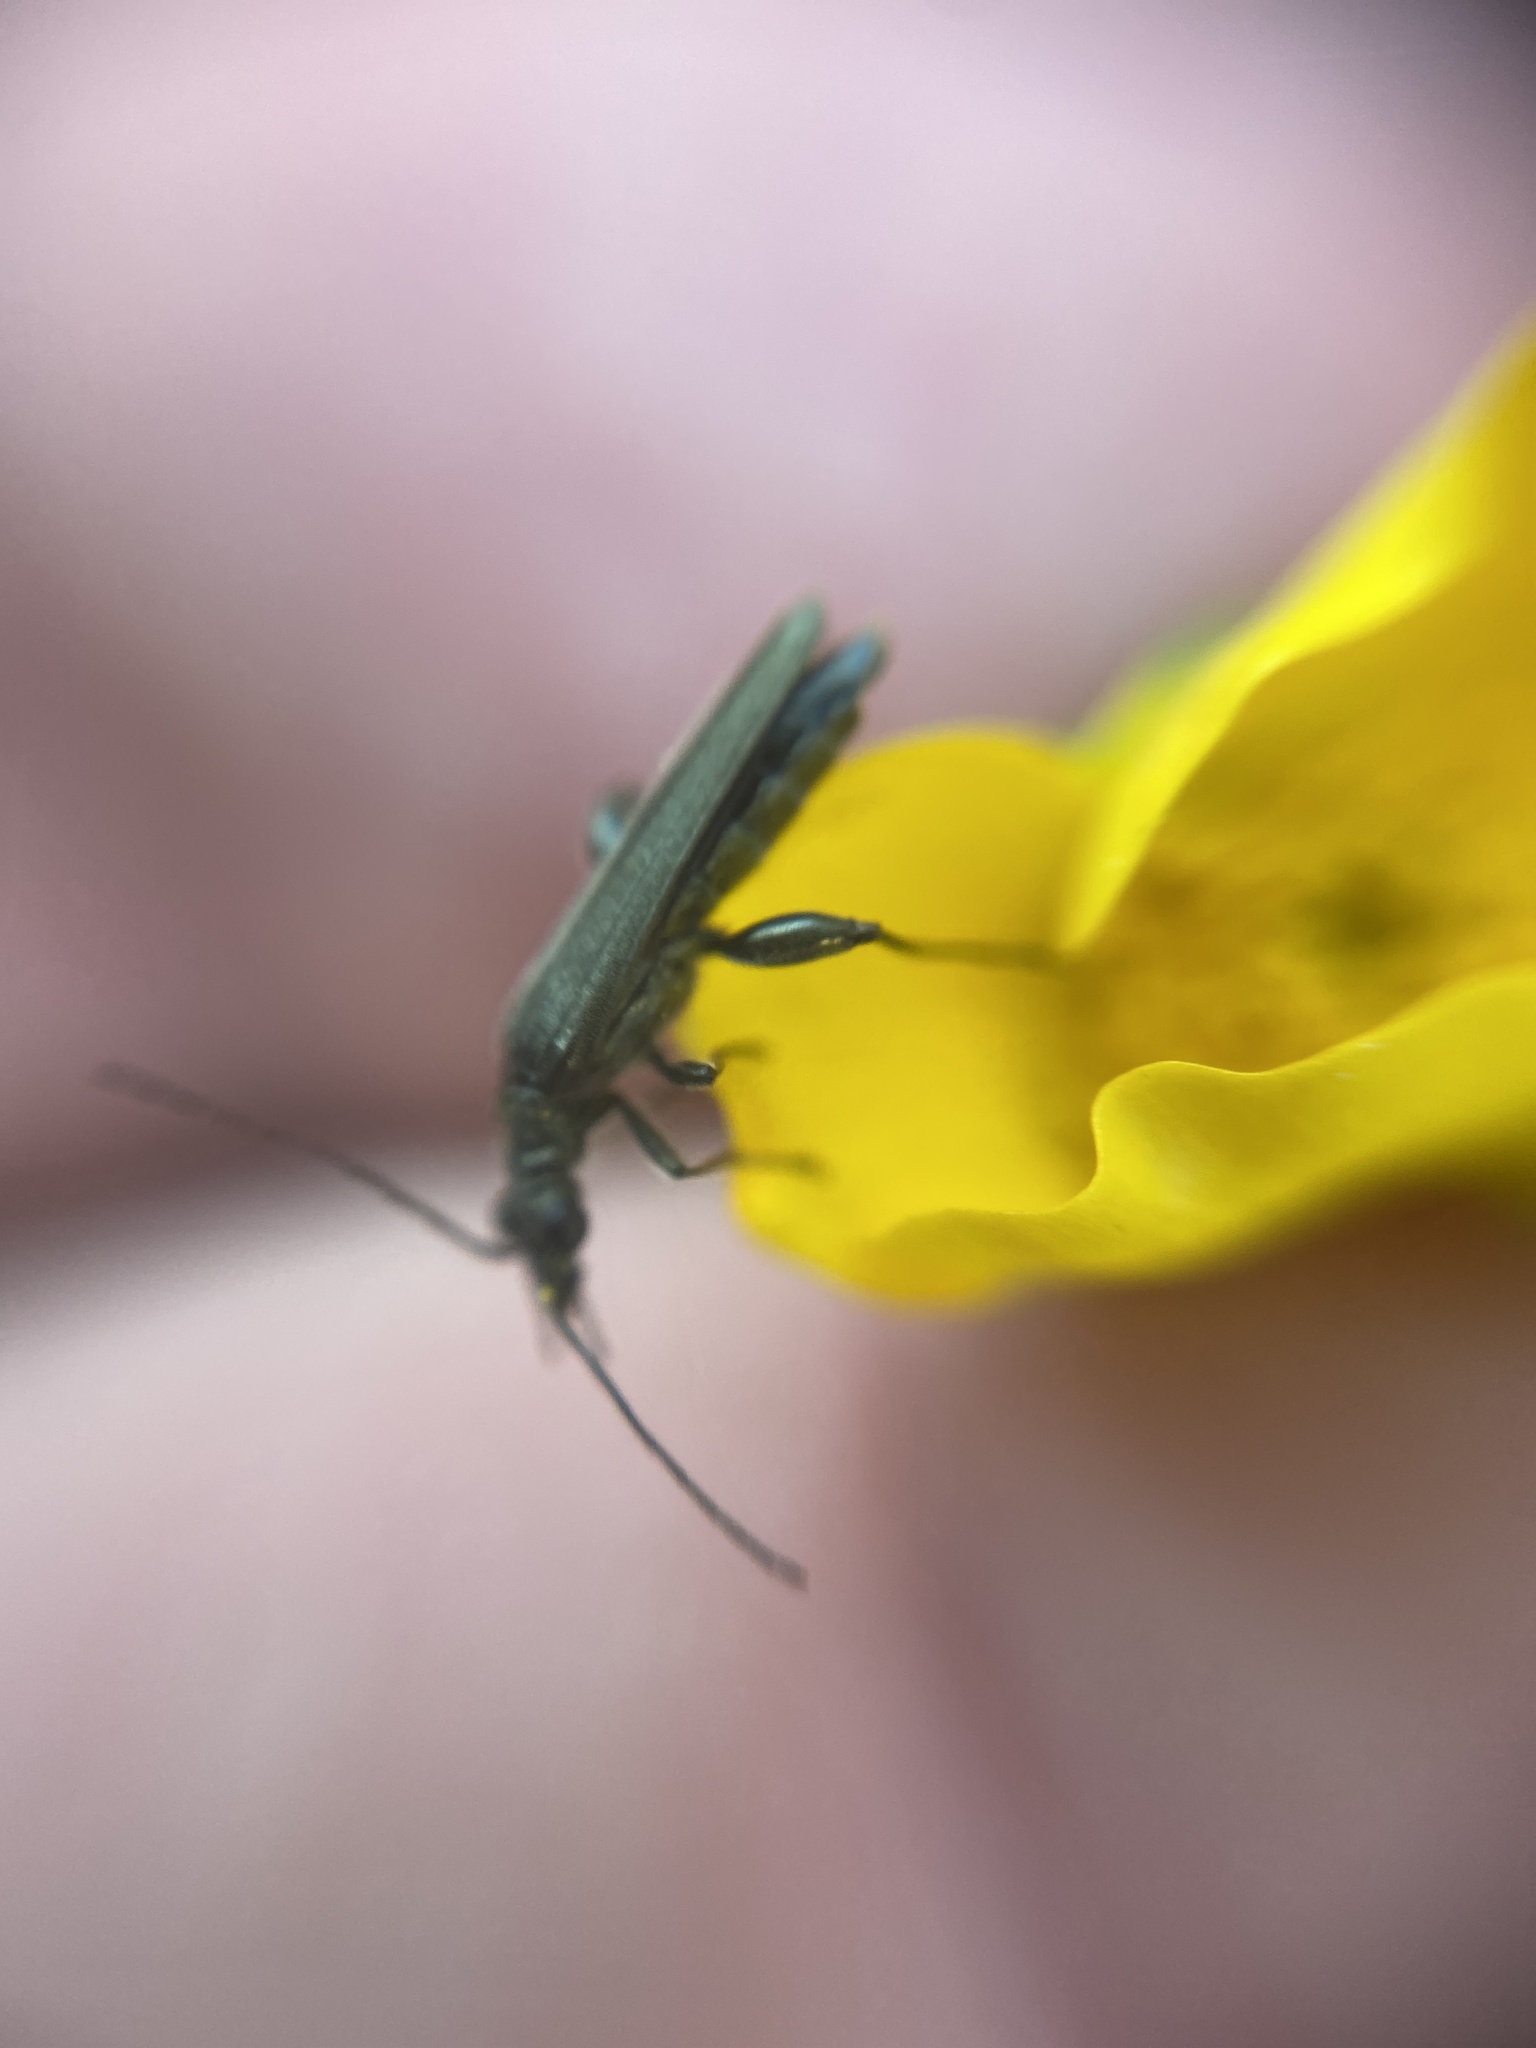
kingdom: Animalia
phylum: Arthropoda
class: Insecta
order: Coleoptera
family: Oedemeridae
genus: Oedemera
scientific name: Oedemera virescens
